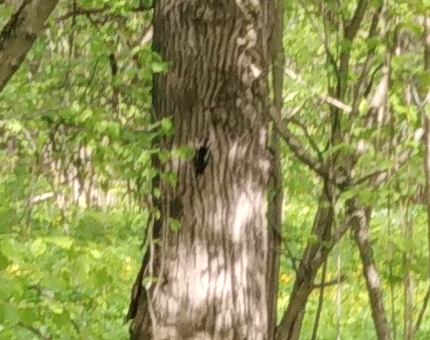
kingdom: Animalia
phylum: Chordata
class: Aves
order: Piciformes
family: Picidae
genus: Dendrocopos
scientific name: Dendrocopos major
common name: Great spotted woodpecker
